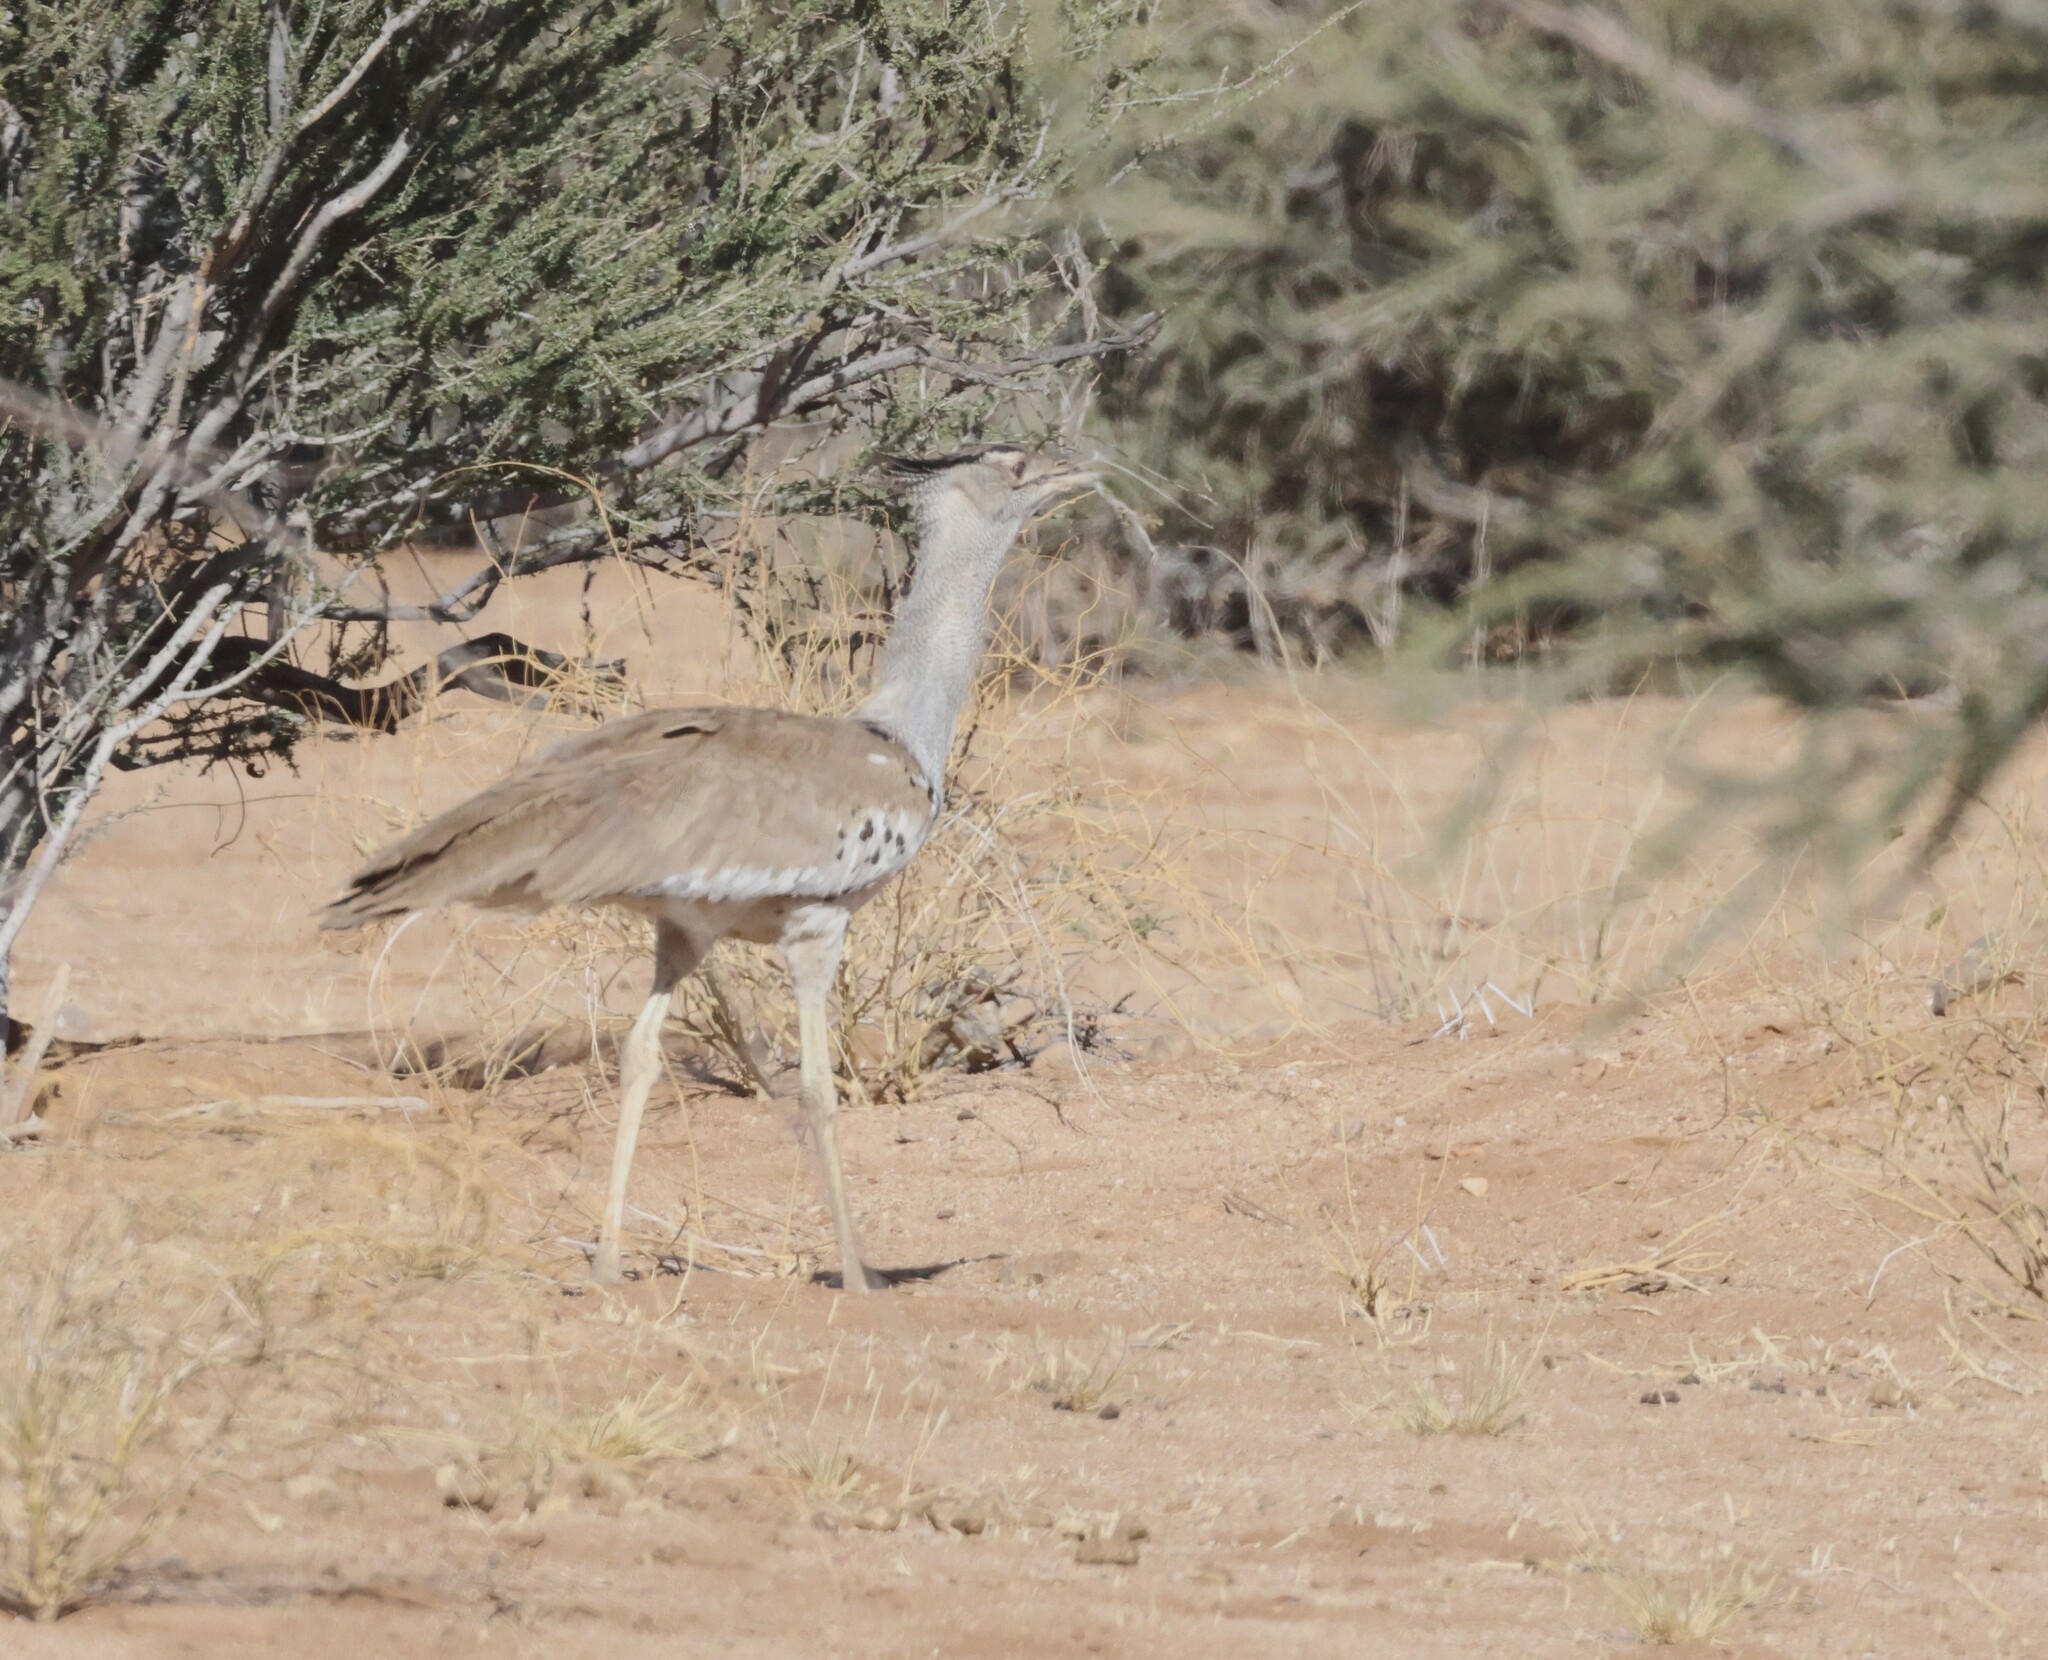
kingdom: Animalia
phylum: Chordata
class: Aves
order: Otidiformes
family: Otididae
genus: Ardeotis
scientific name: Ardeotis kori
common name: Kori bustard
